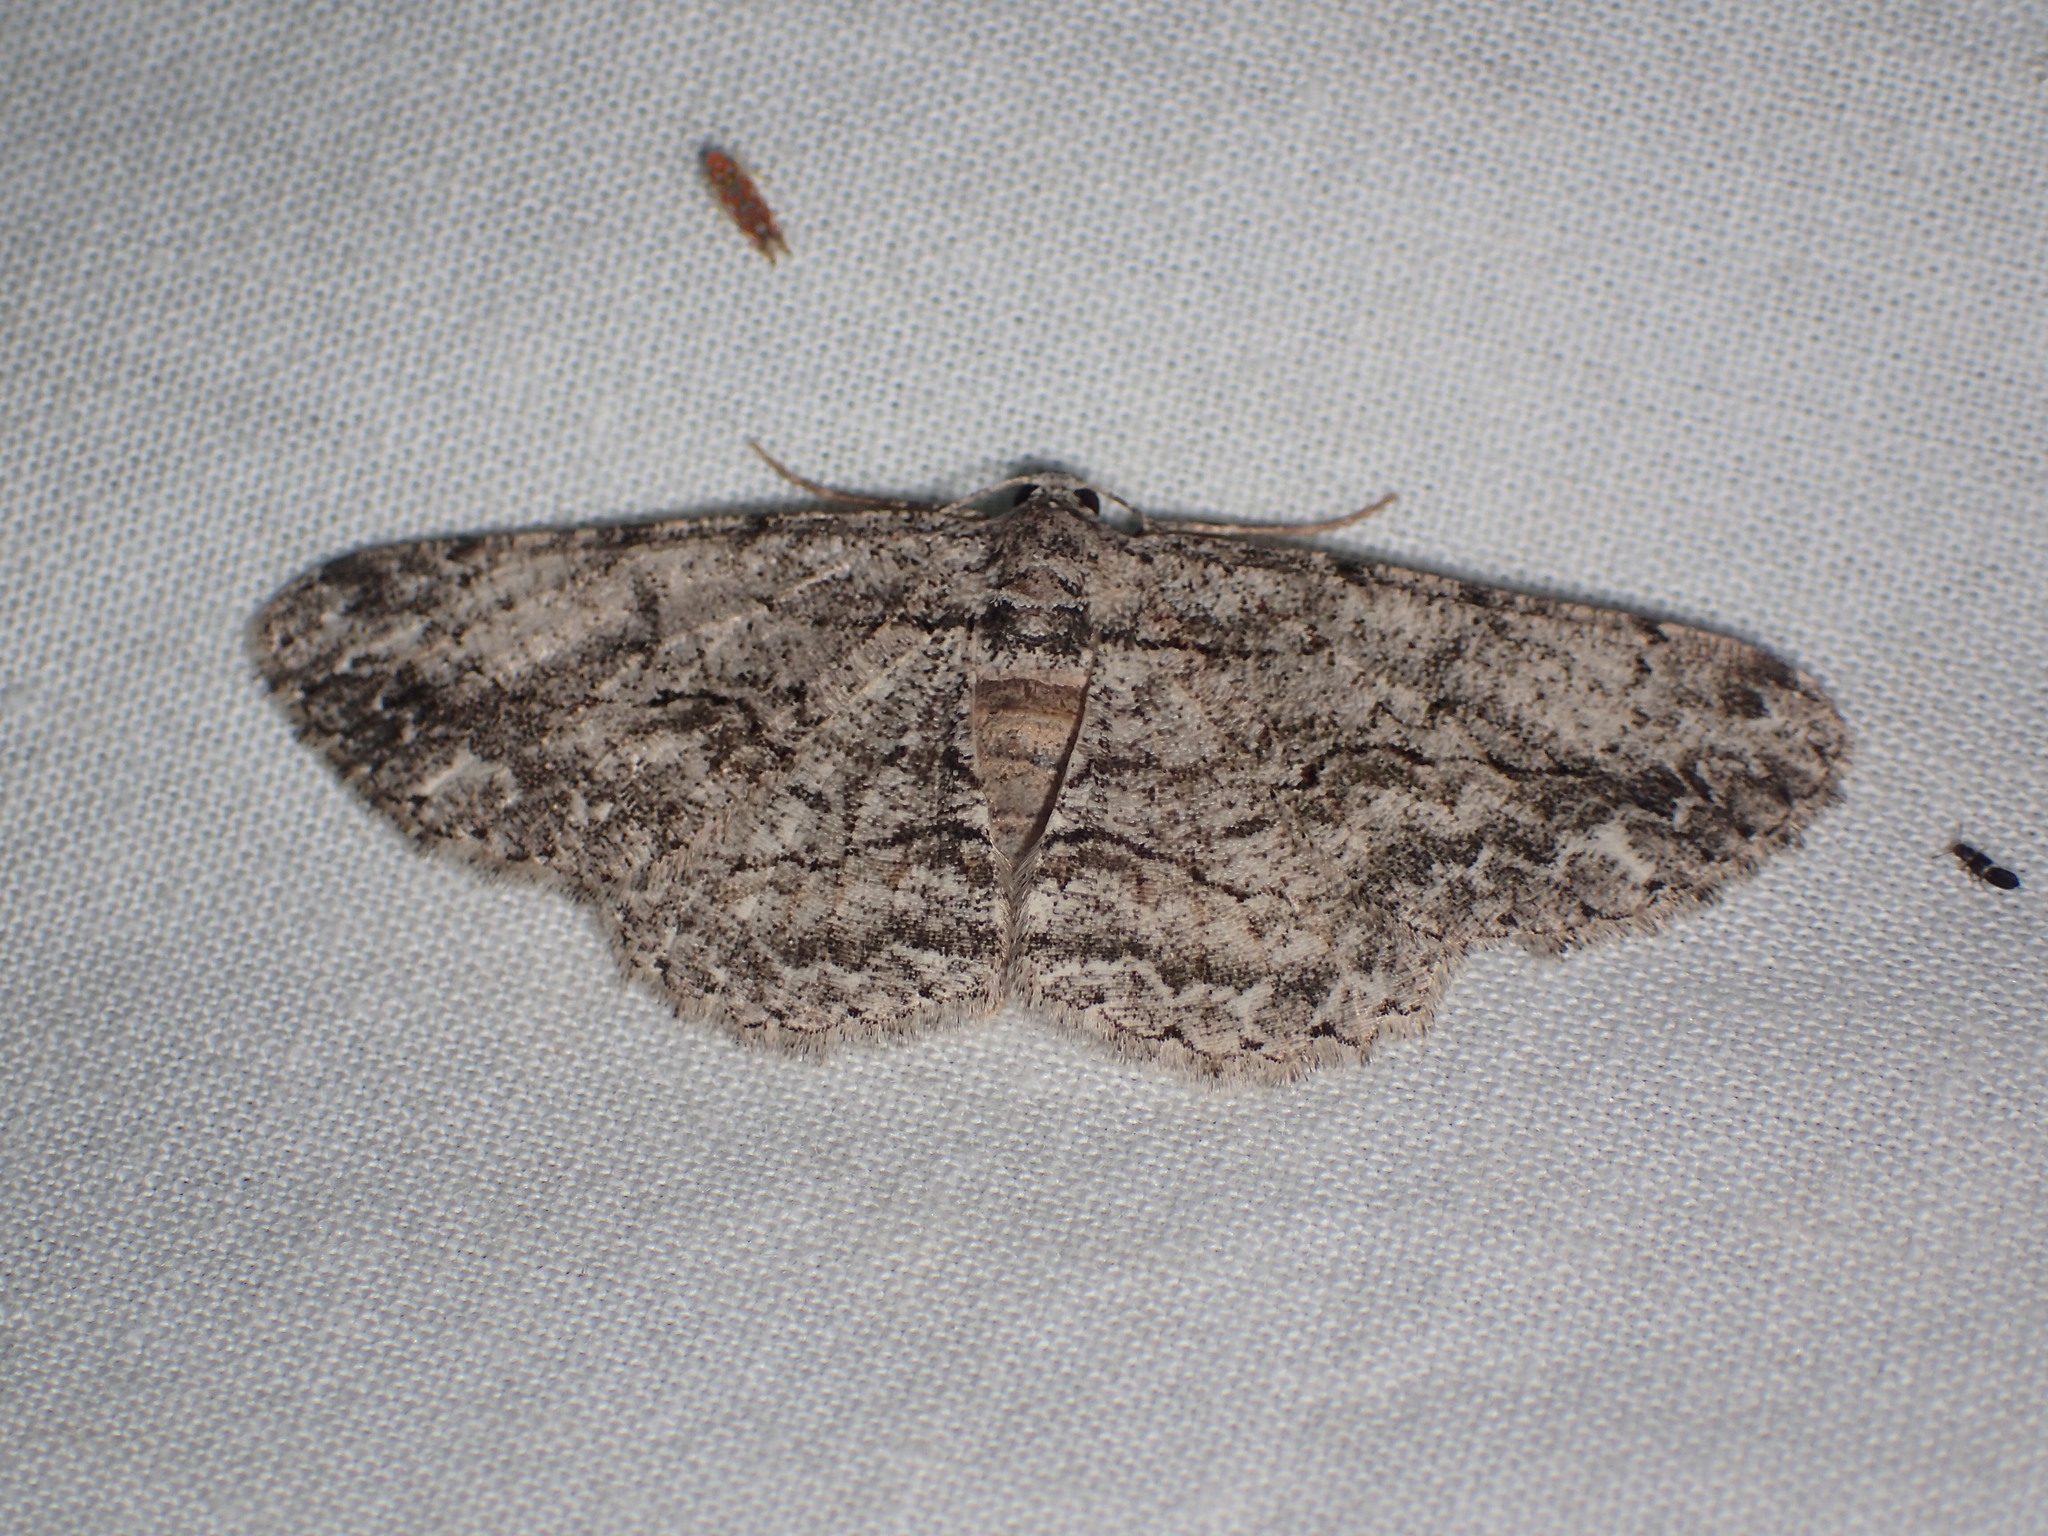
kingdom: Animalia
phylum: Arthropoda
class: Insecta
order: Lepidoptera
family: Geometridae
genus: Anavitrinella
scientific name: Anavitrinella pampinaria
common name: Common gray
